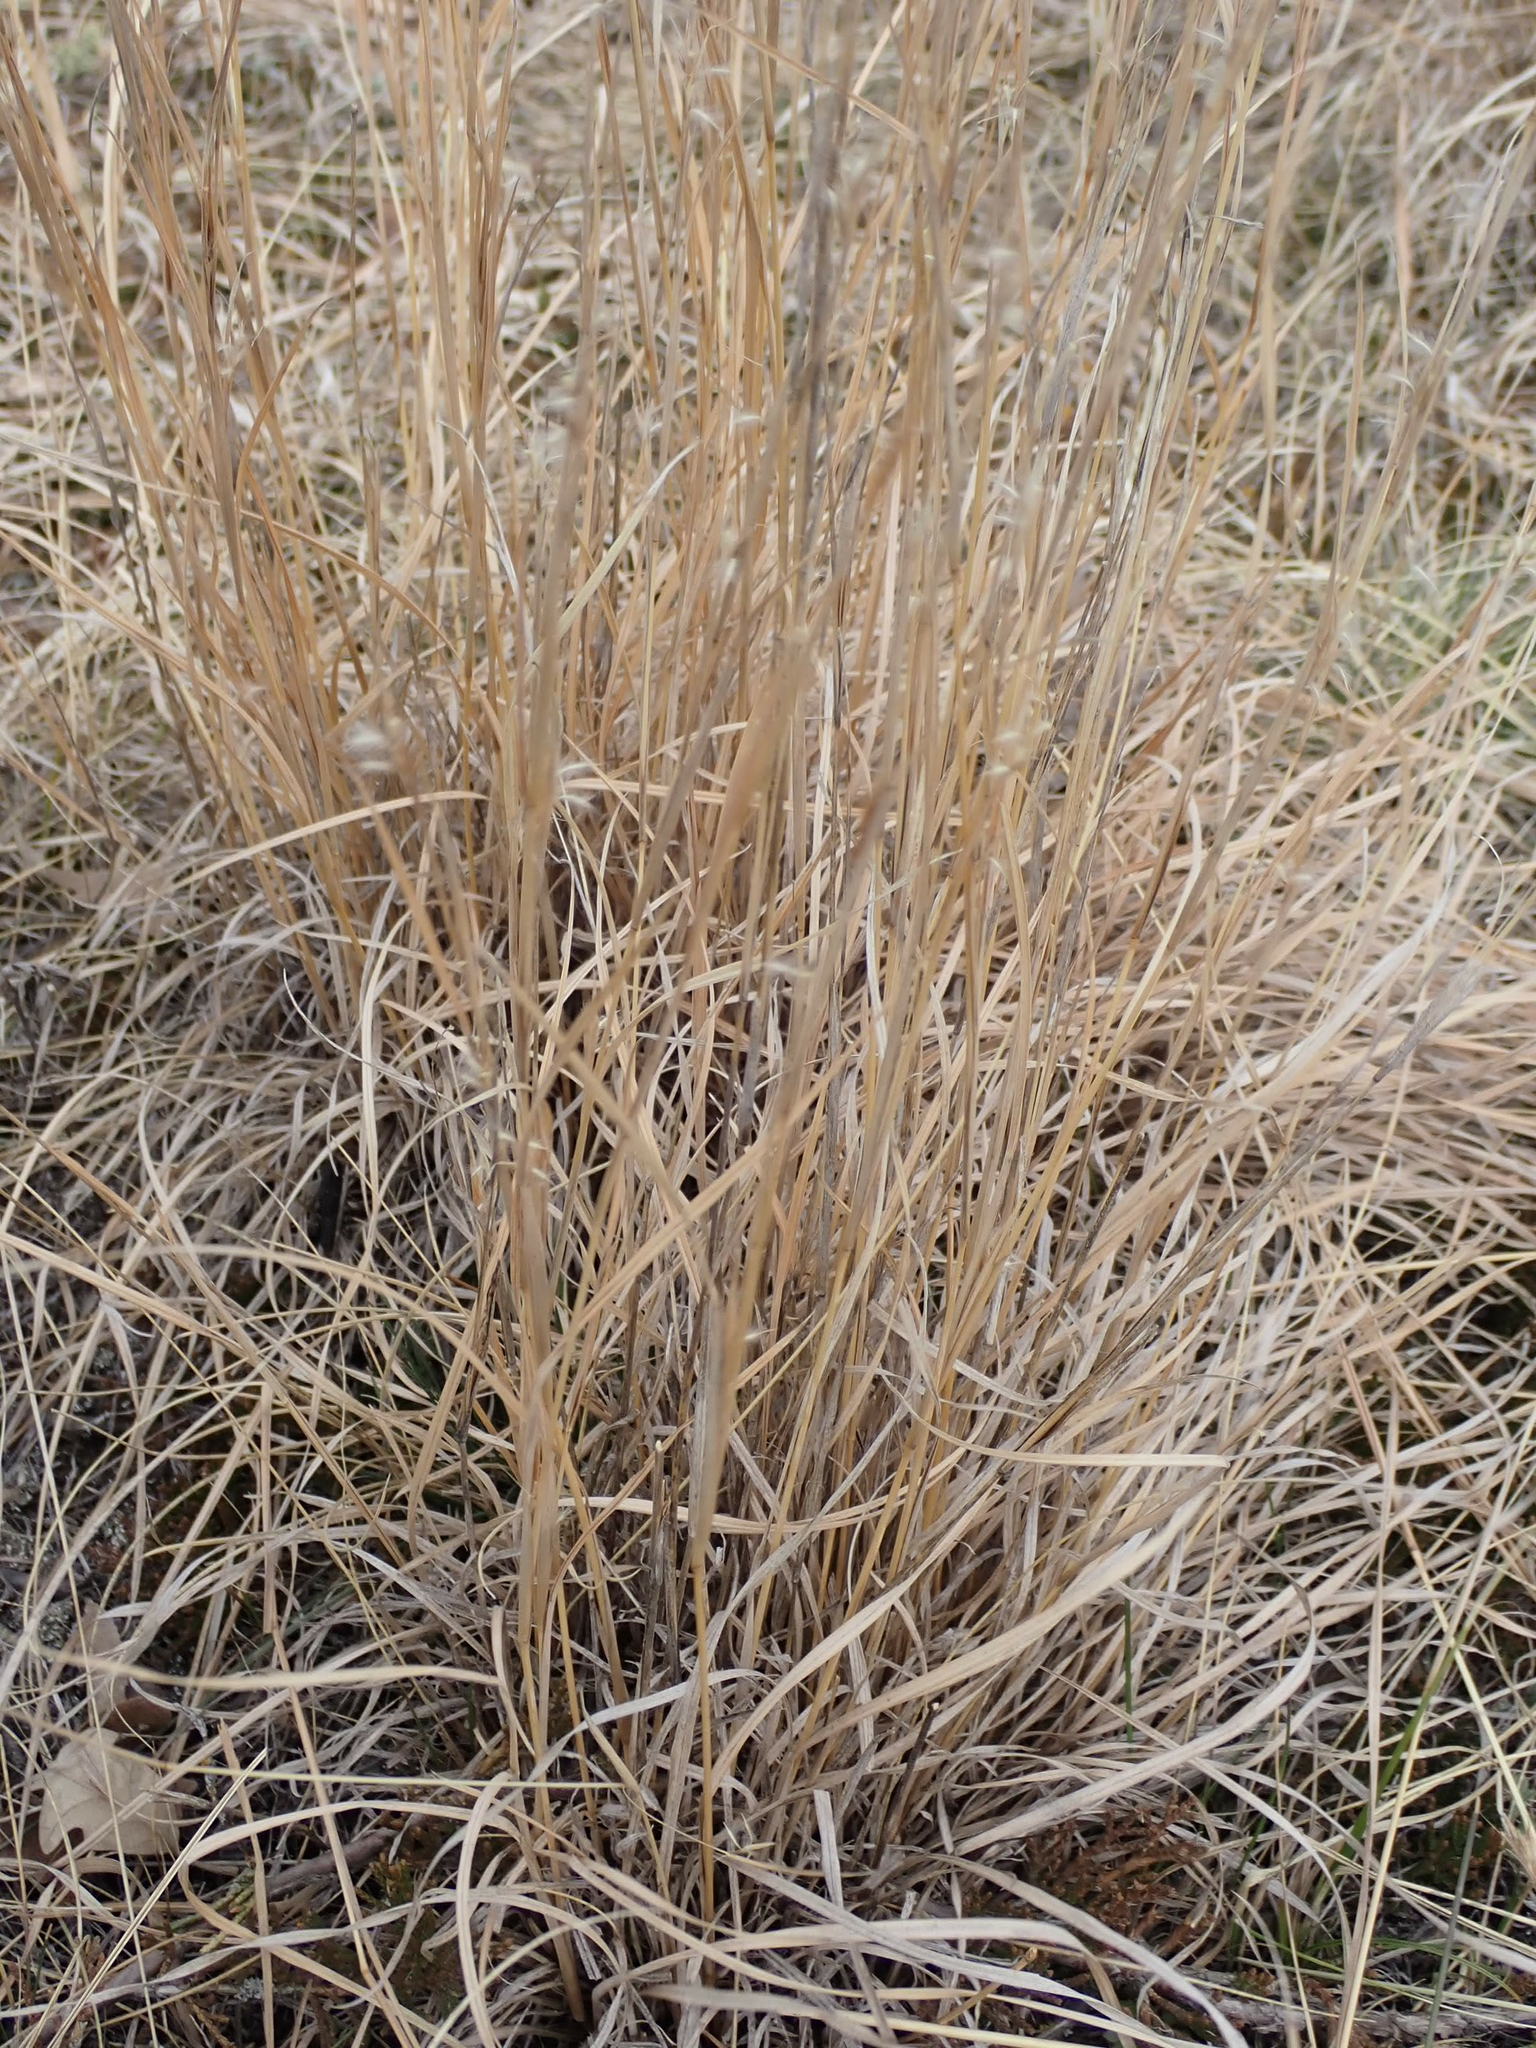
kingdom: Plantae
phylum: Tracheophyta
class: Liliopsida
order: Poales
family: Poaceae
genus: Schizachyrium
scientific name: Schizachyrium scoparium
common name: Little bluestem
